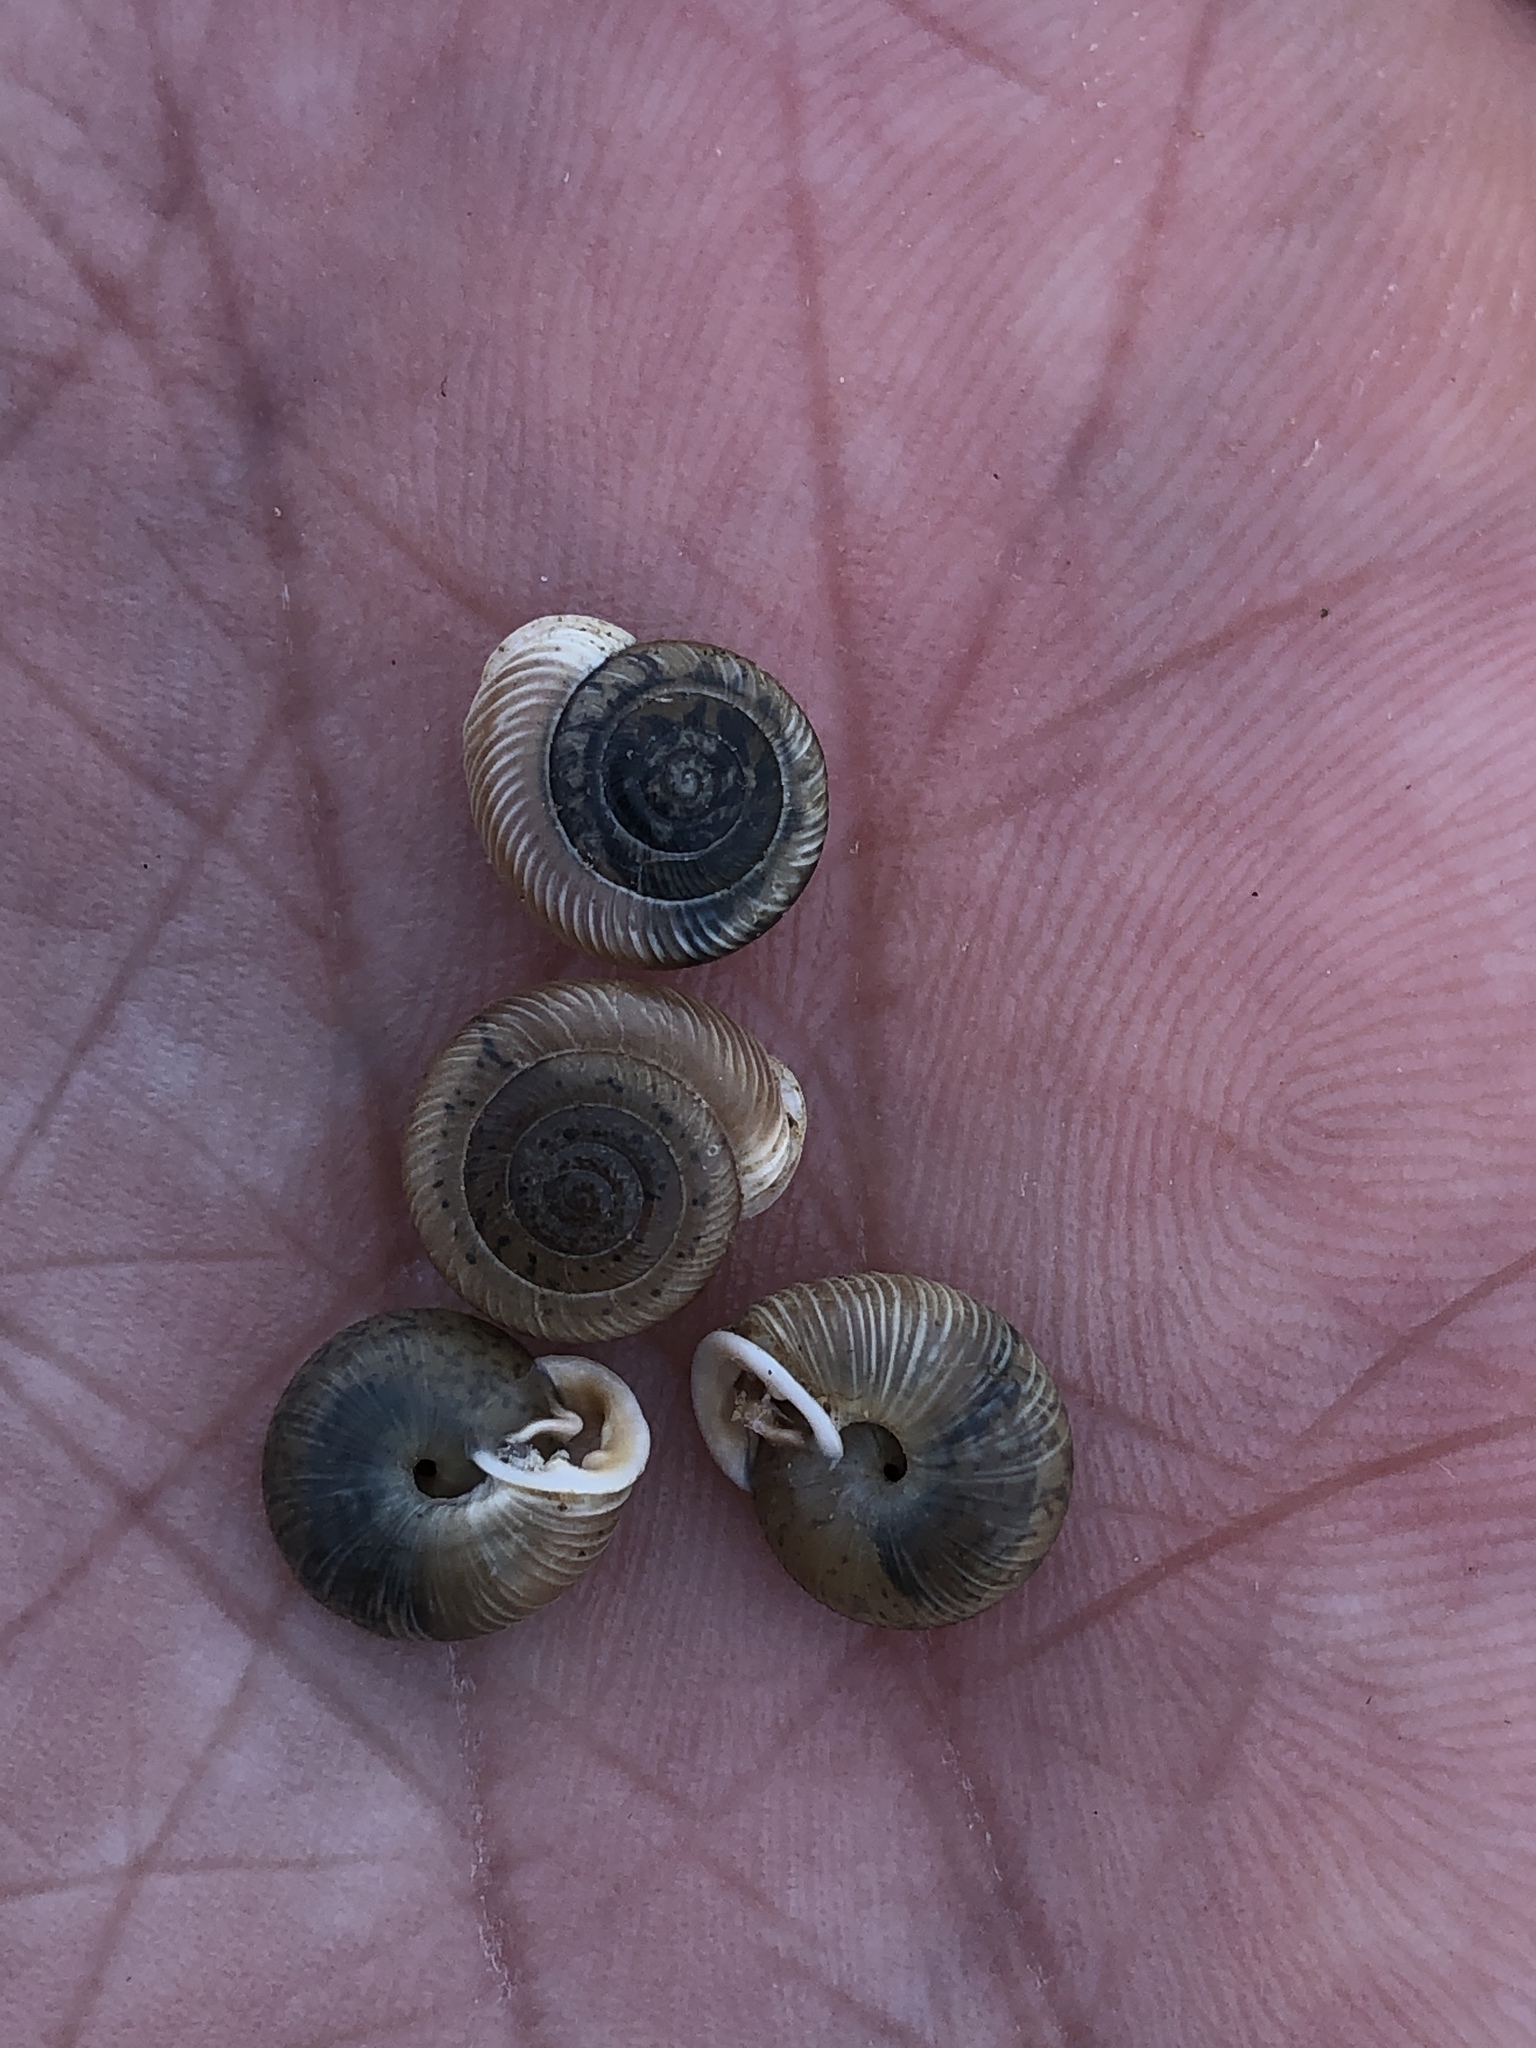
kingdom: Animalia
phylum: Mollusca
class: Gastropoda
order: Stylommatophora
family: Polygyridae
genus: Linisa
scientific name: Linisa texasiana
